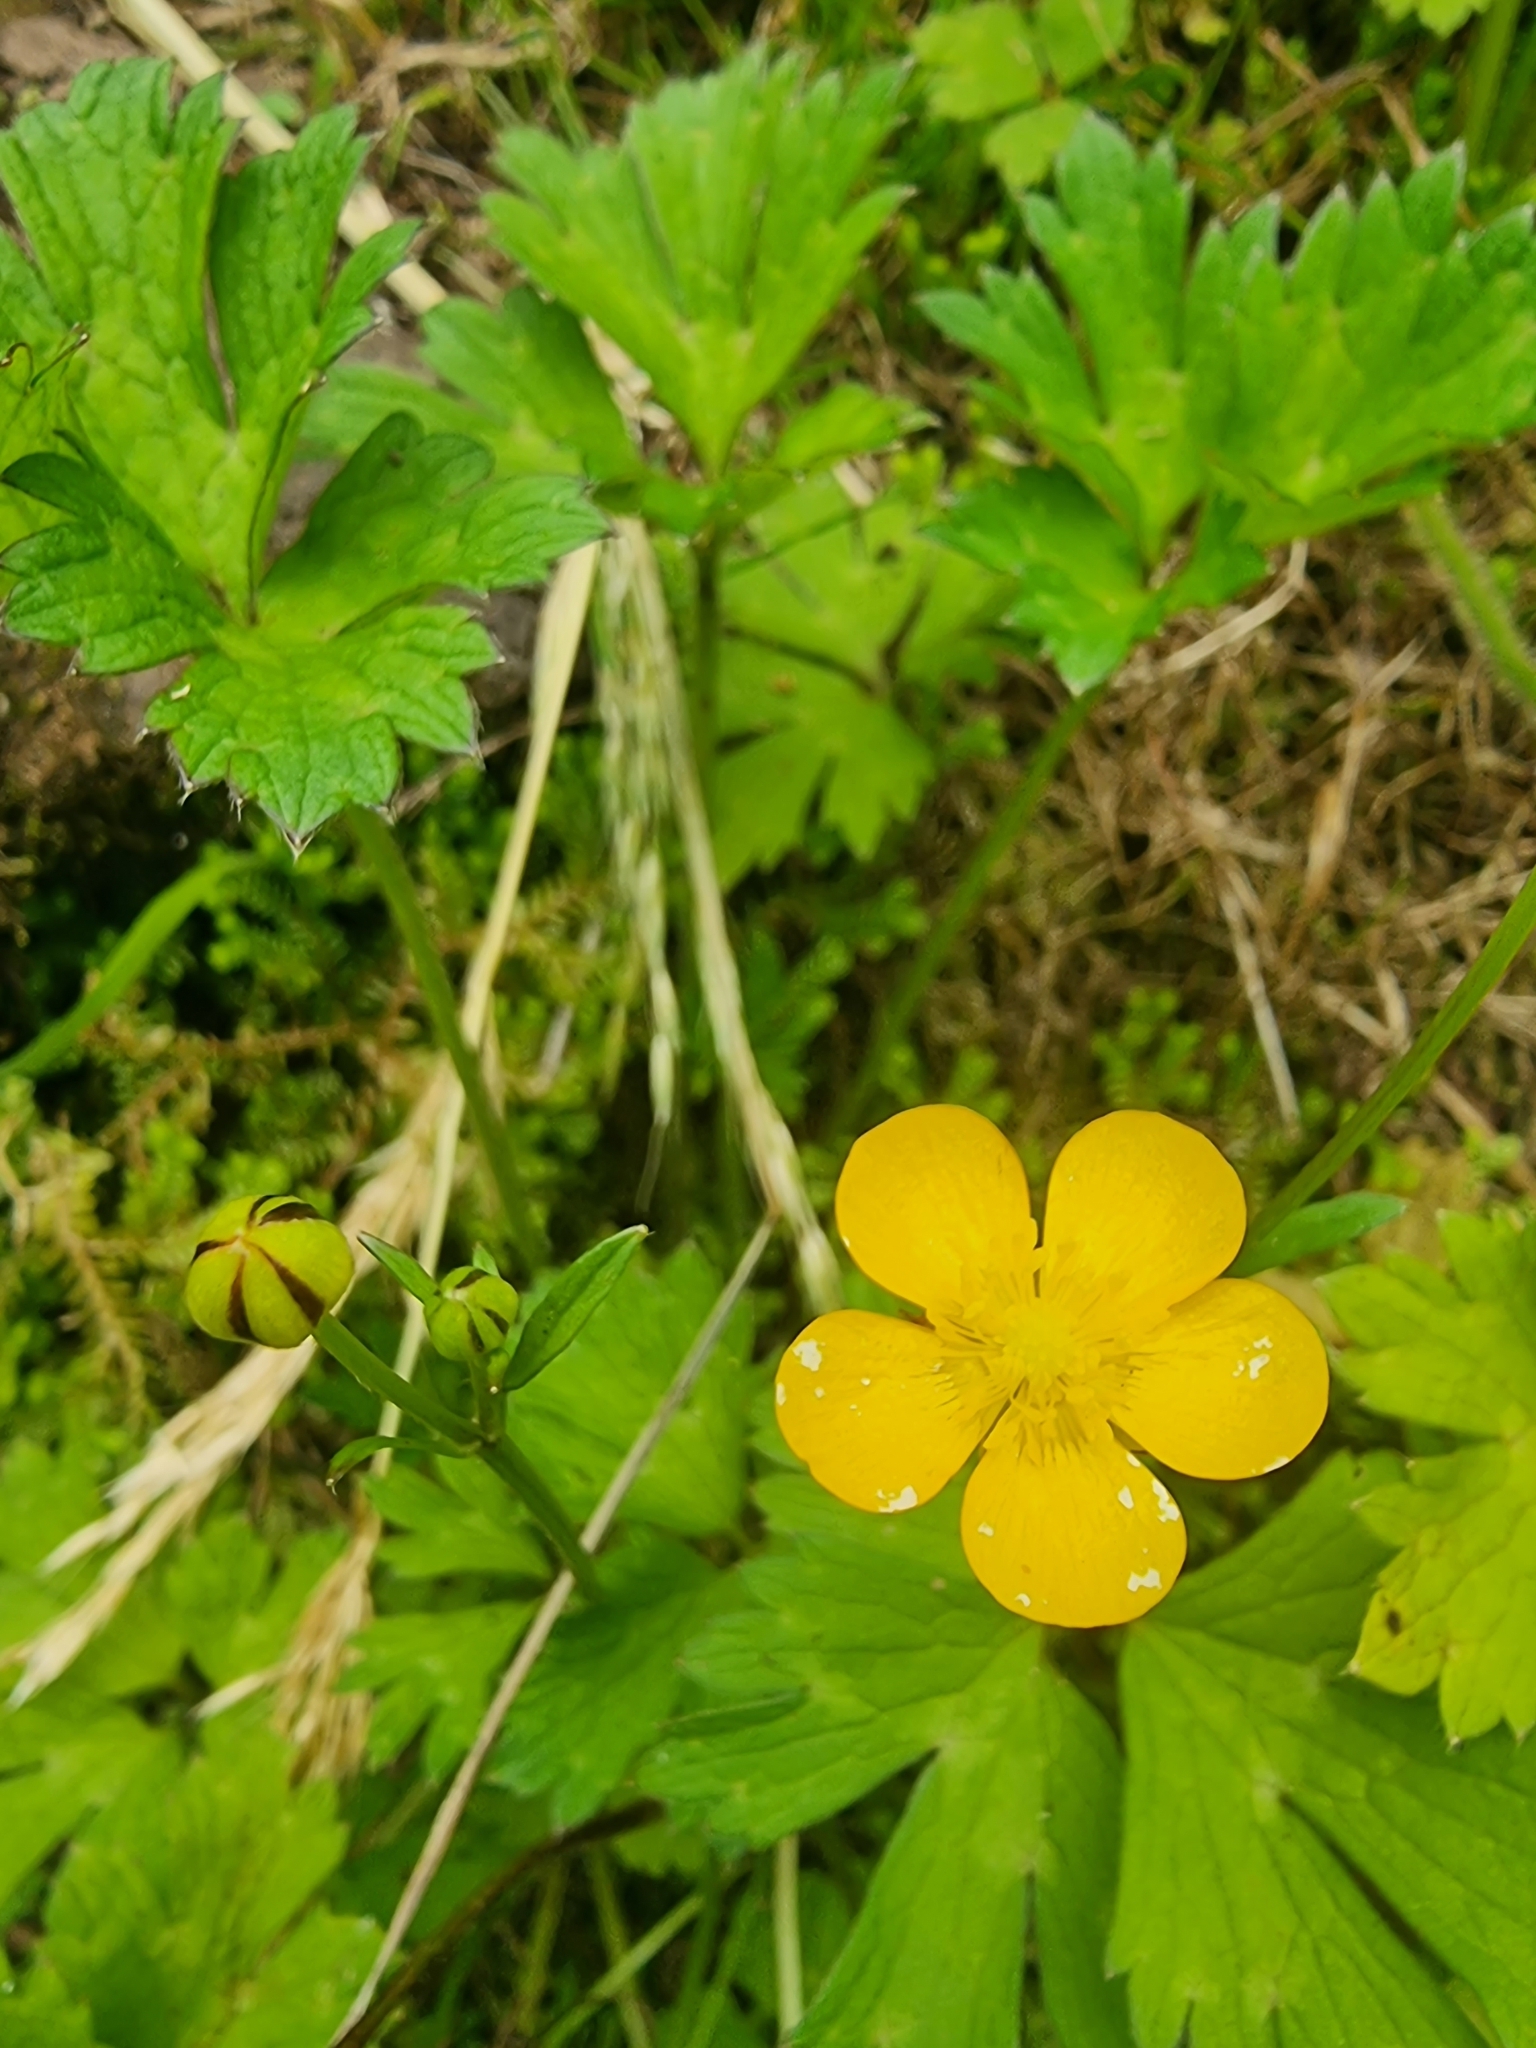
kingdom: Plantae
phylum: Tracheophyta
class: Magnoliopsida
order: Ranunculales
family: Ranunculaceae
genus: Ranunculus
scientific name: Ranunculus repens
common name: Creeping buttercup
